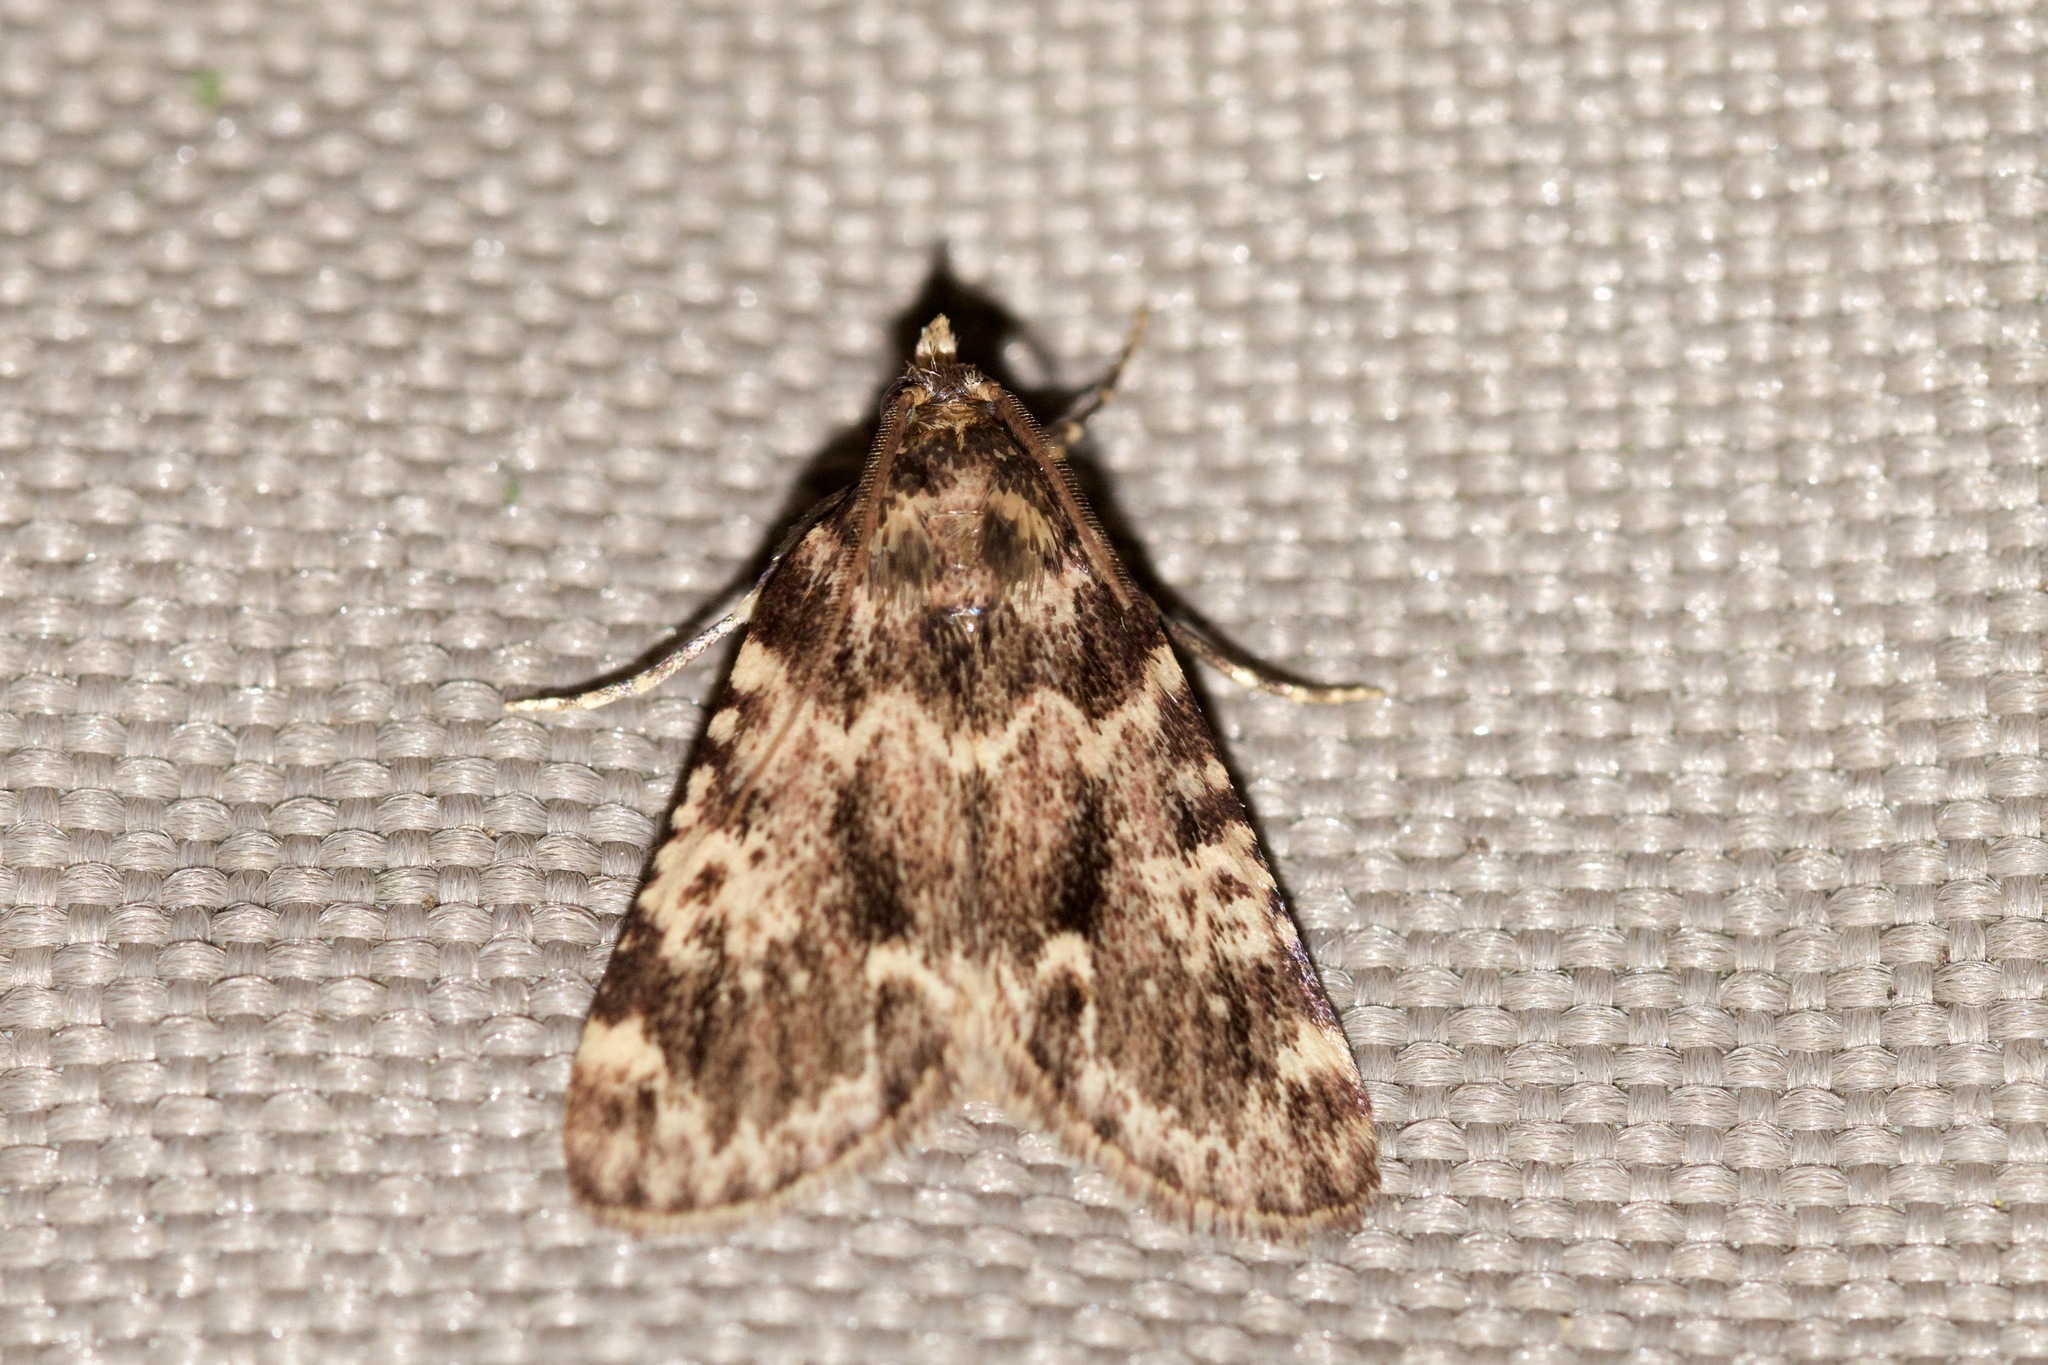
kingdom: Animalia
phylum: Arthropoda
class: Insecta
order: Lepidoptera
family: Pyralidae
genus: Aglossa
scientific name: Aglossa caprealis
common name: Small tabby
